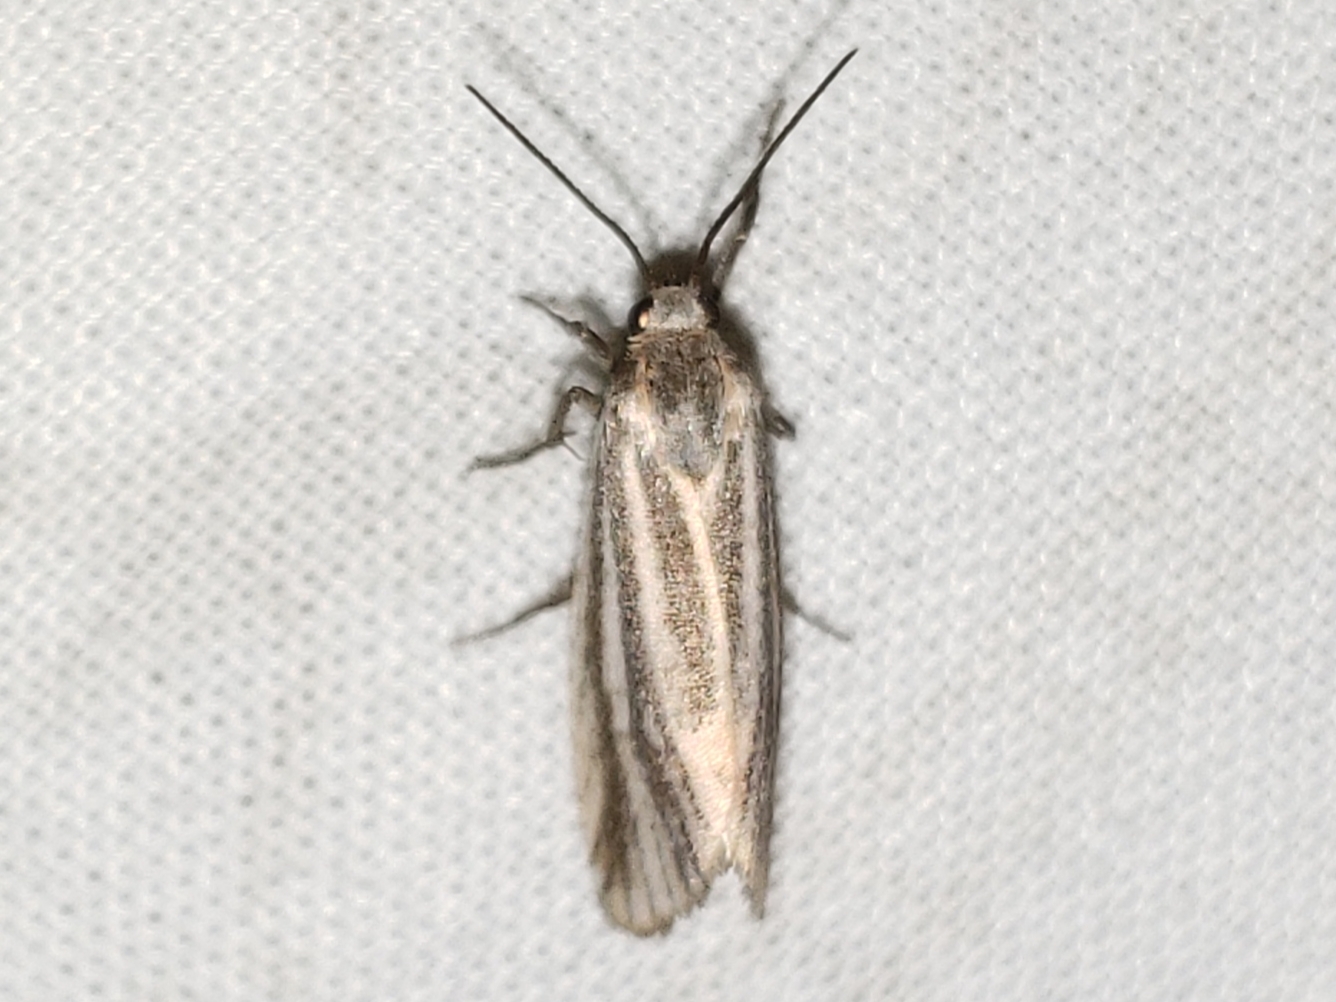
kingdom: Animalia
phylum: Arthropoda
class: Insecta
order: Lepidoptera
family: Erebidae
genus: Cisthene
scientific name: Cisthene striata
